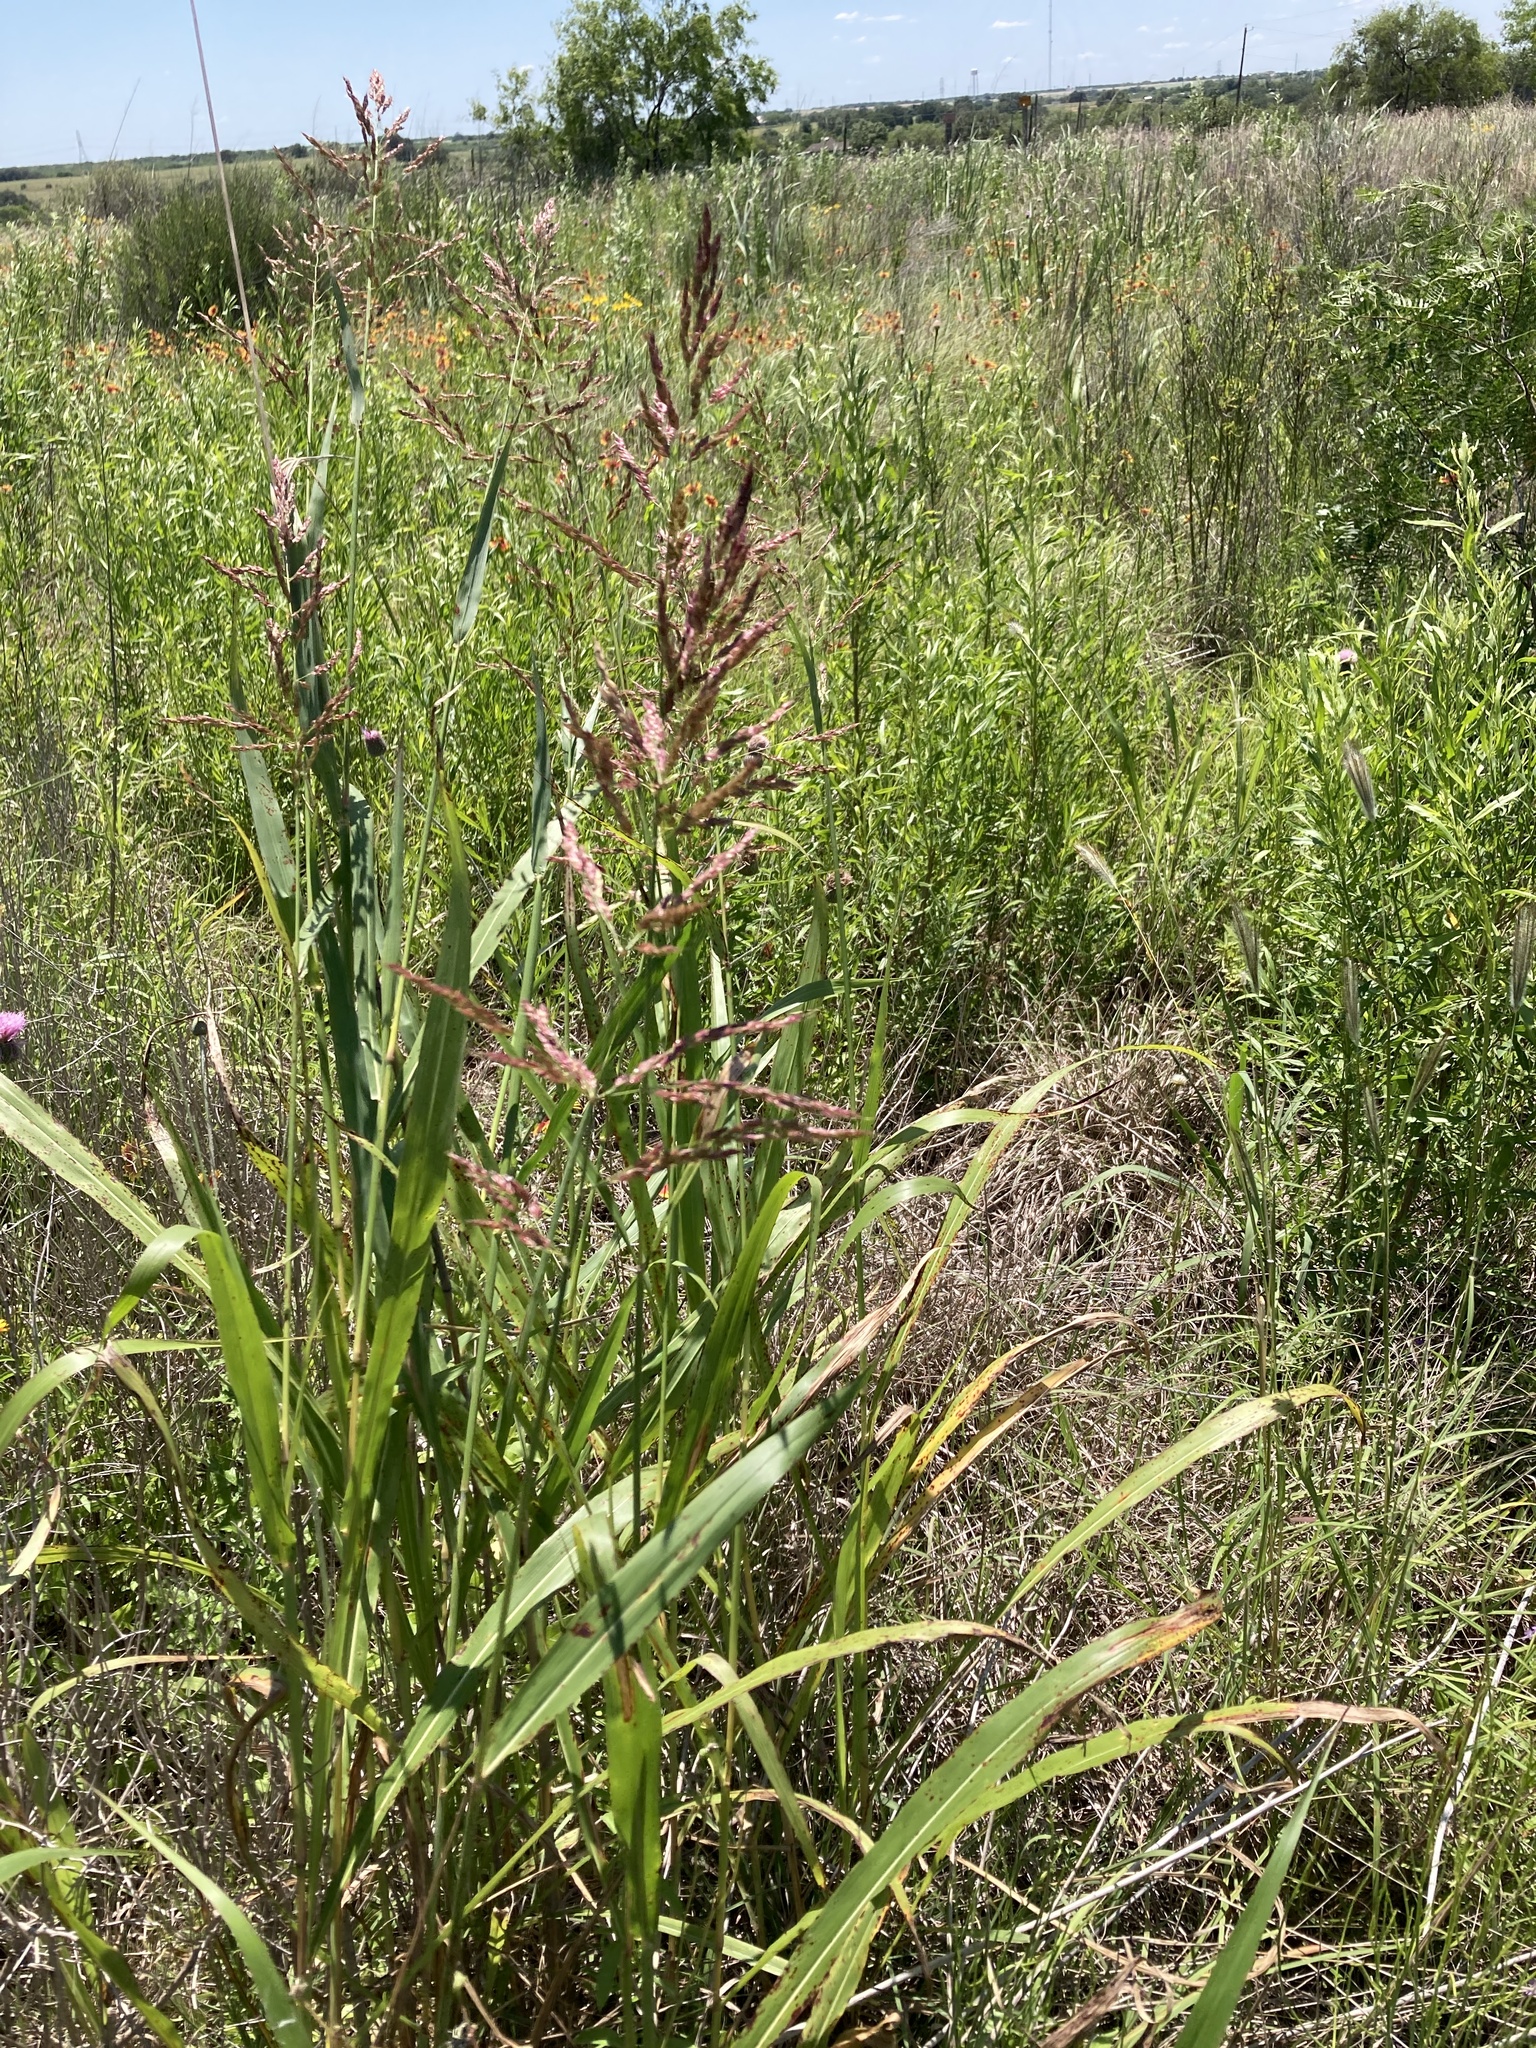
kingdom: Plantae
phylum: Tracheophyta
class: Liliopsida
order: Poales
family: Poaceae
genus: Sorghum
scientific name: Sorghum halepense
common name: Johnson-grass
